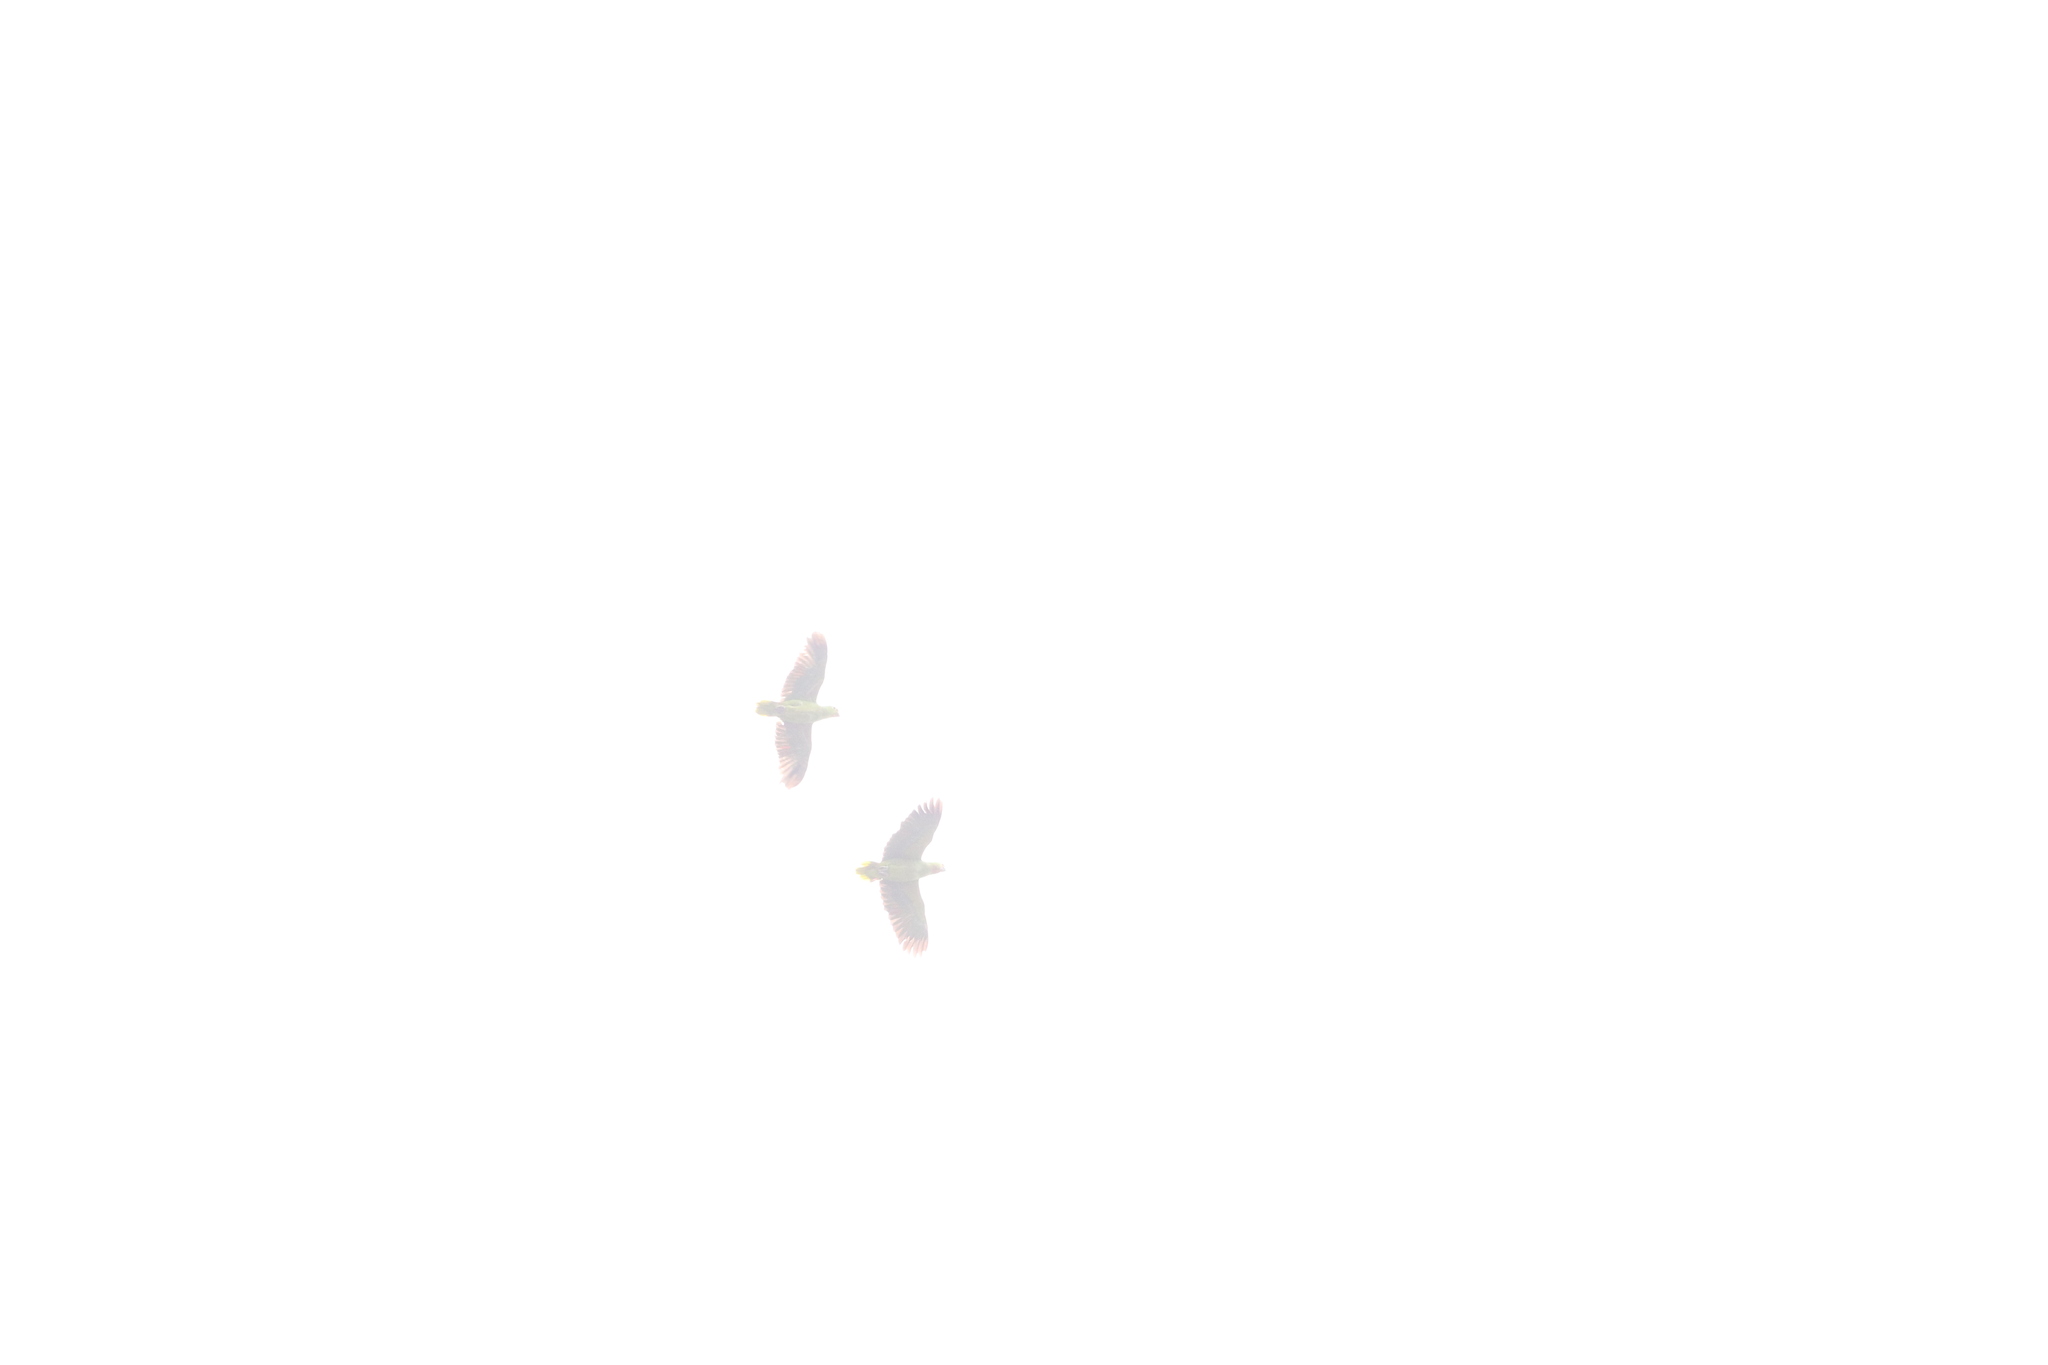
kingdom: Animalia
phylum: Chordata
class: Aves
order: Psittaciformes
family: Psittacidae
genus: Amazona
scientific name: Amazona autumnalis
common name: Red-lored amazon
